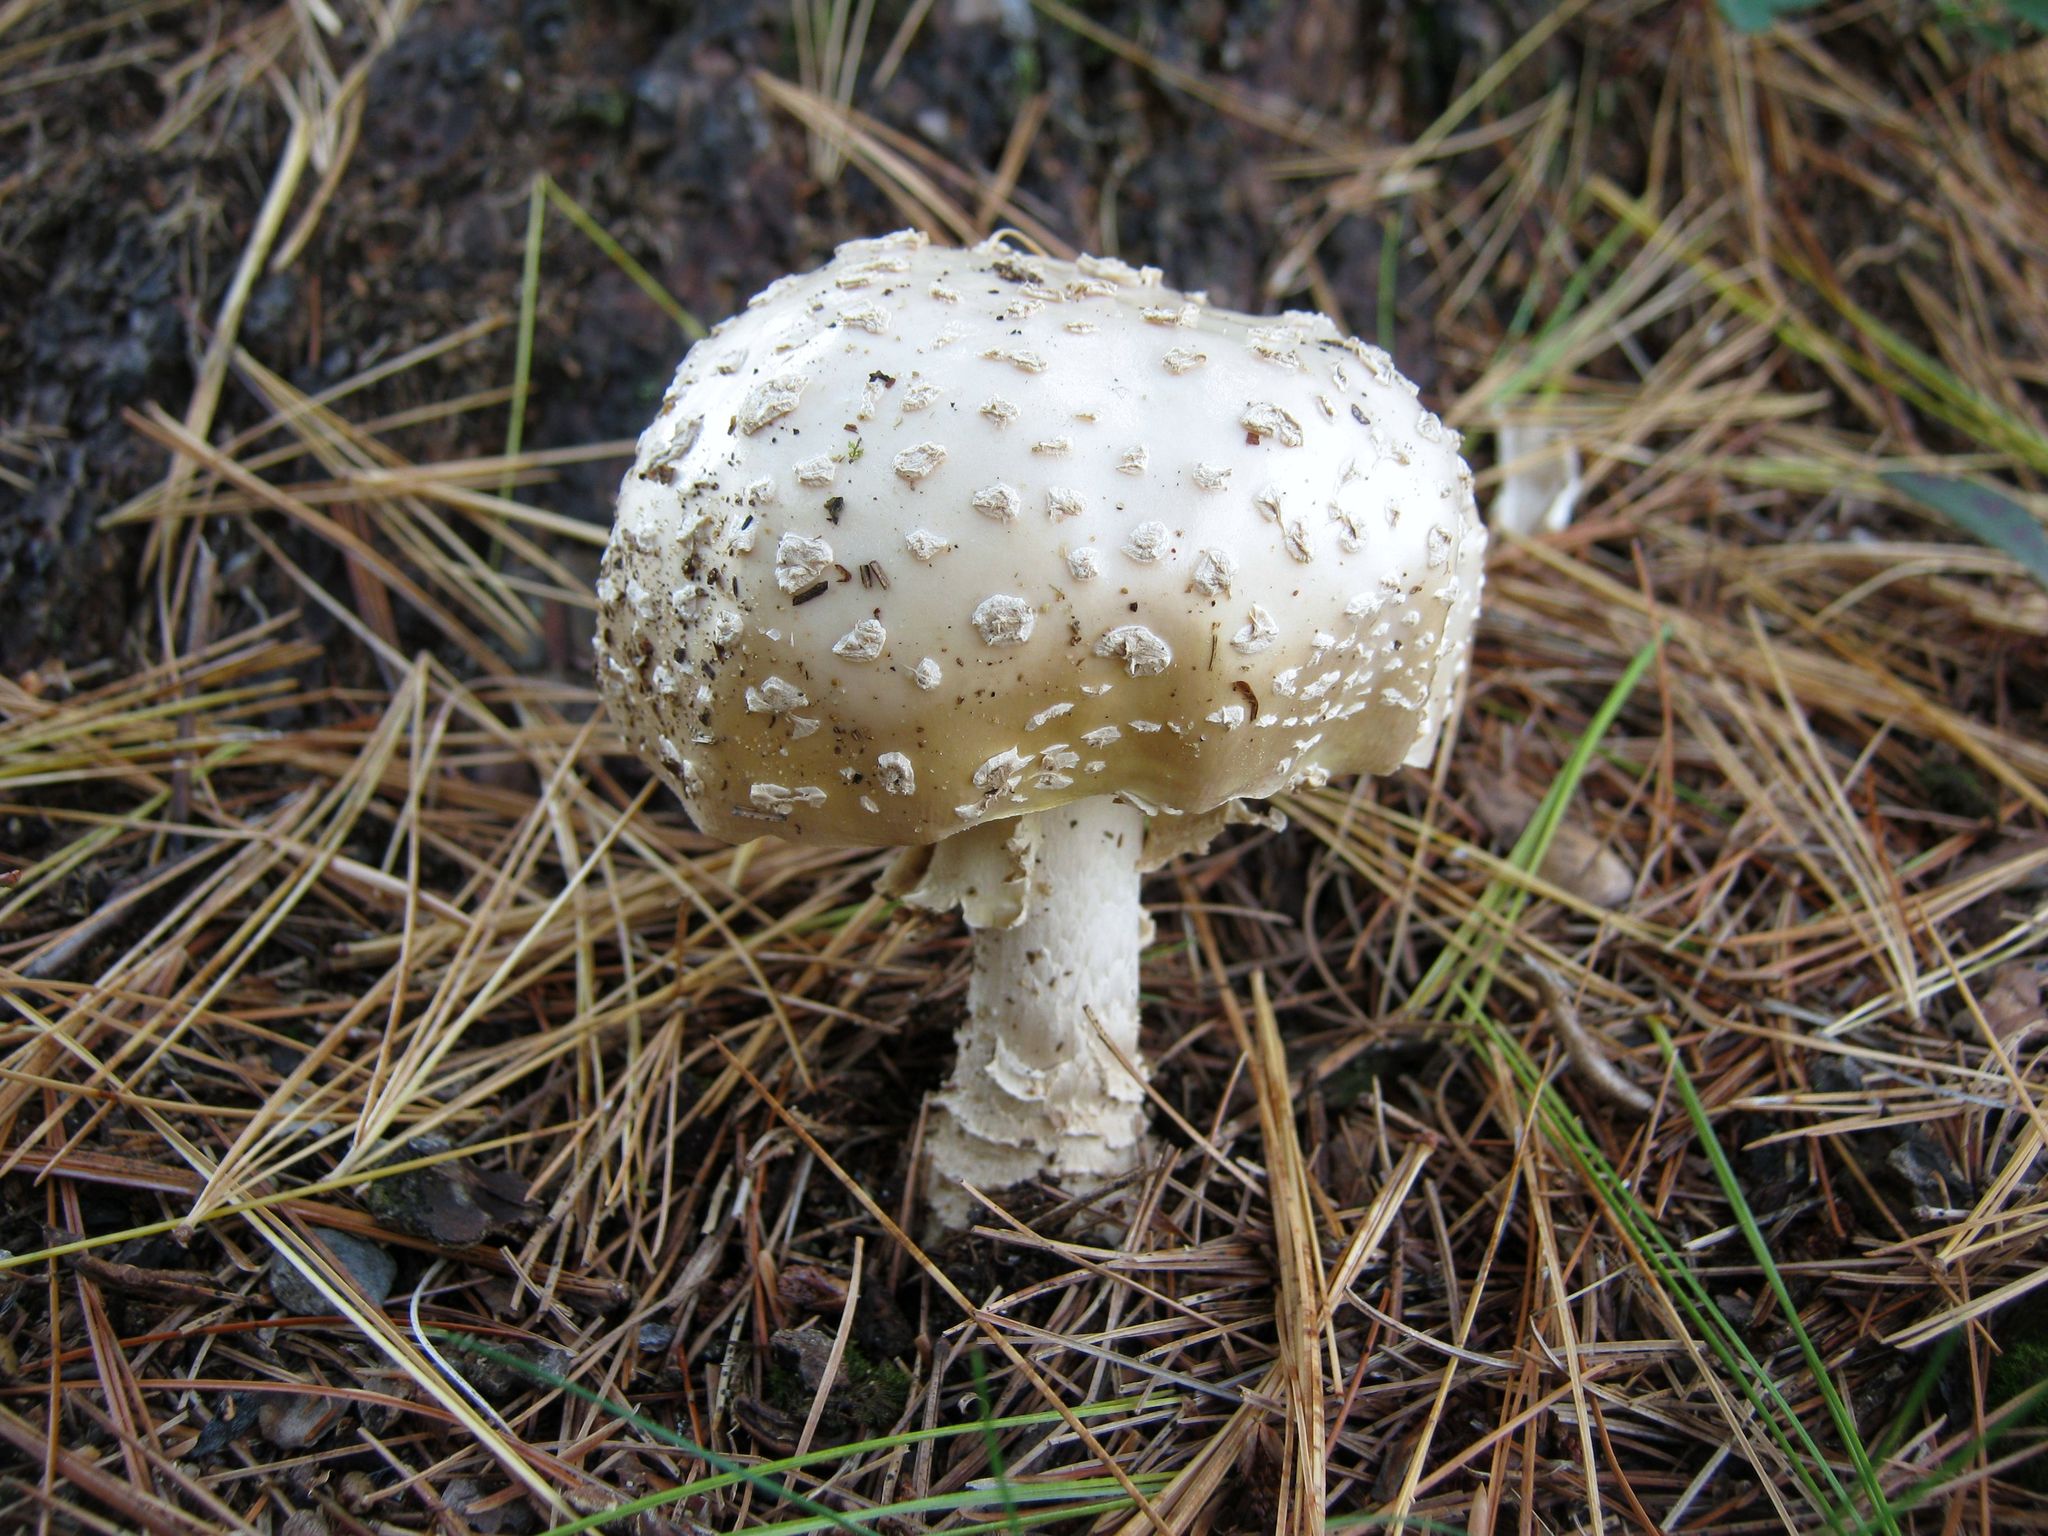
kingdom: Fungi
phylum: Basidiomycota
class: Agaricomycetes
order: Agaricales
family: Amanitaceae
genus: Amanita
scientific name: Amanita muscaria
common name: Fly agaric
